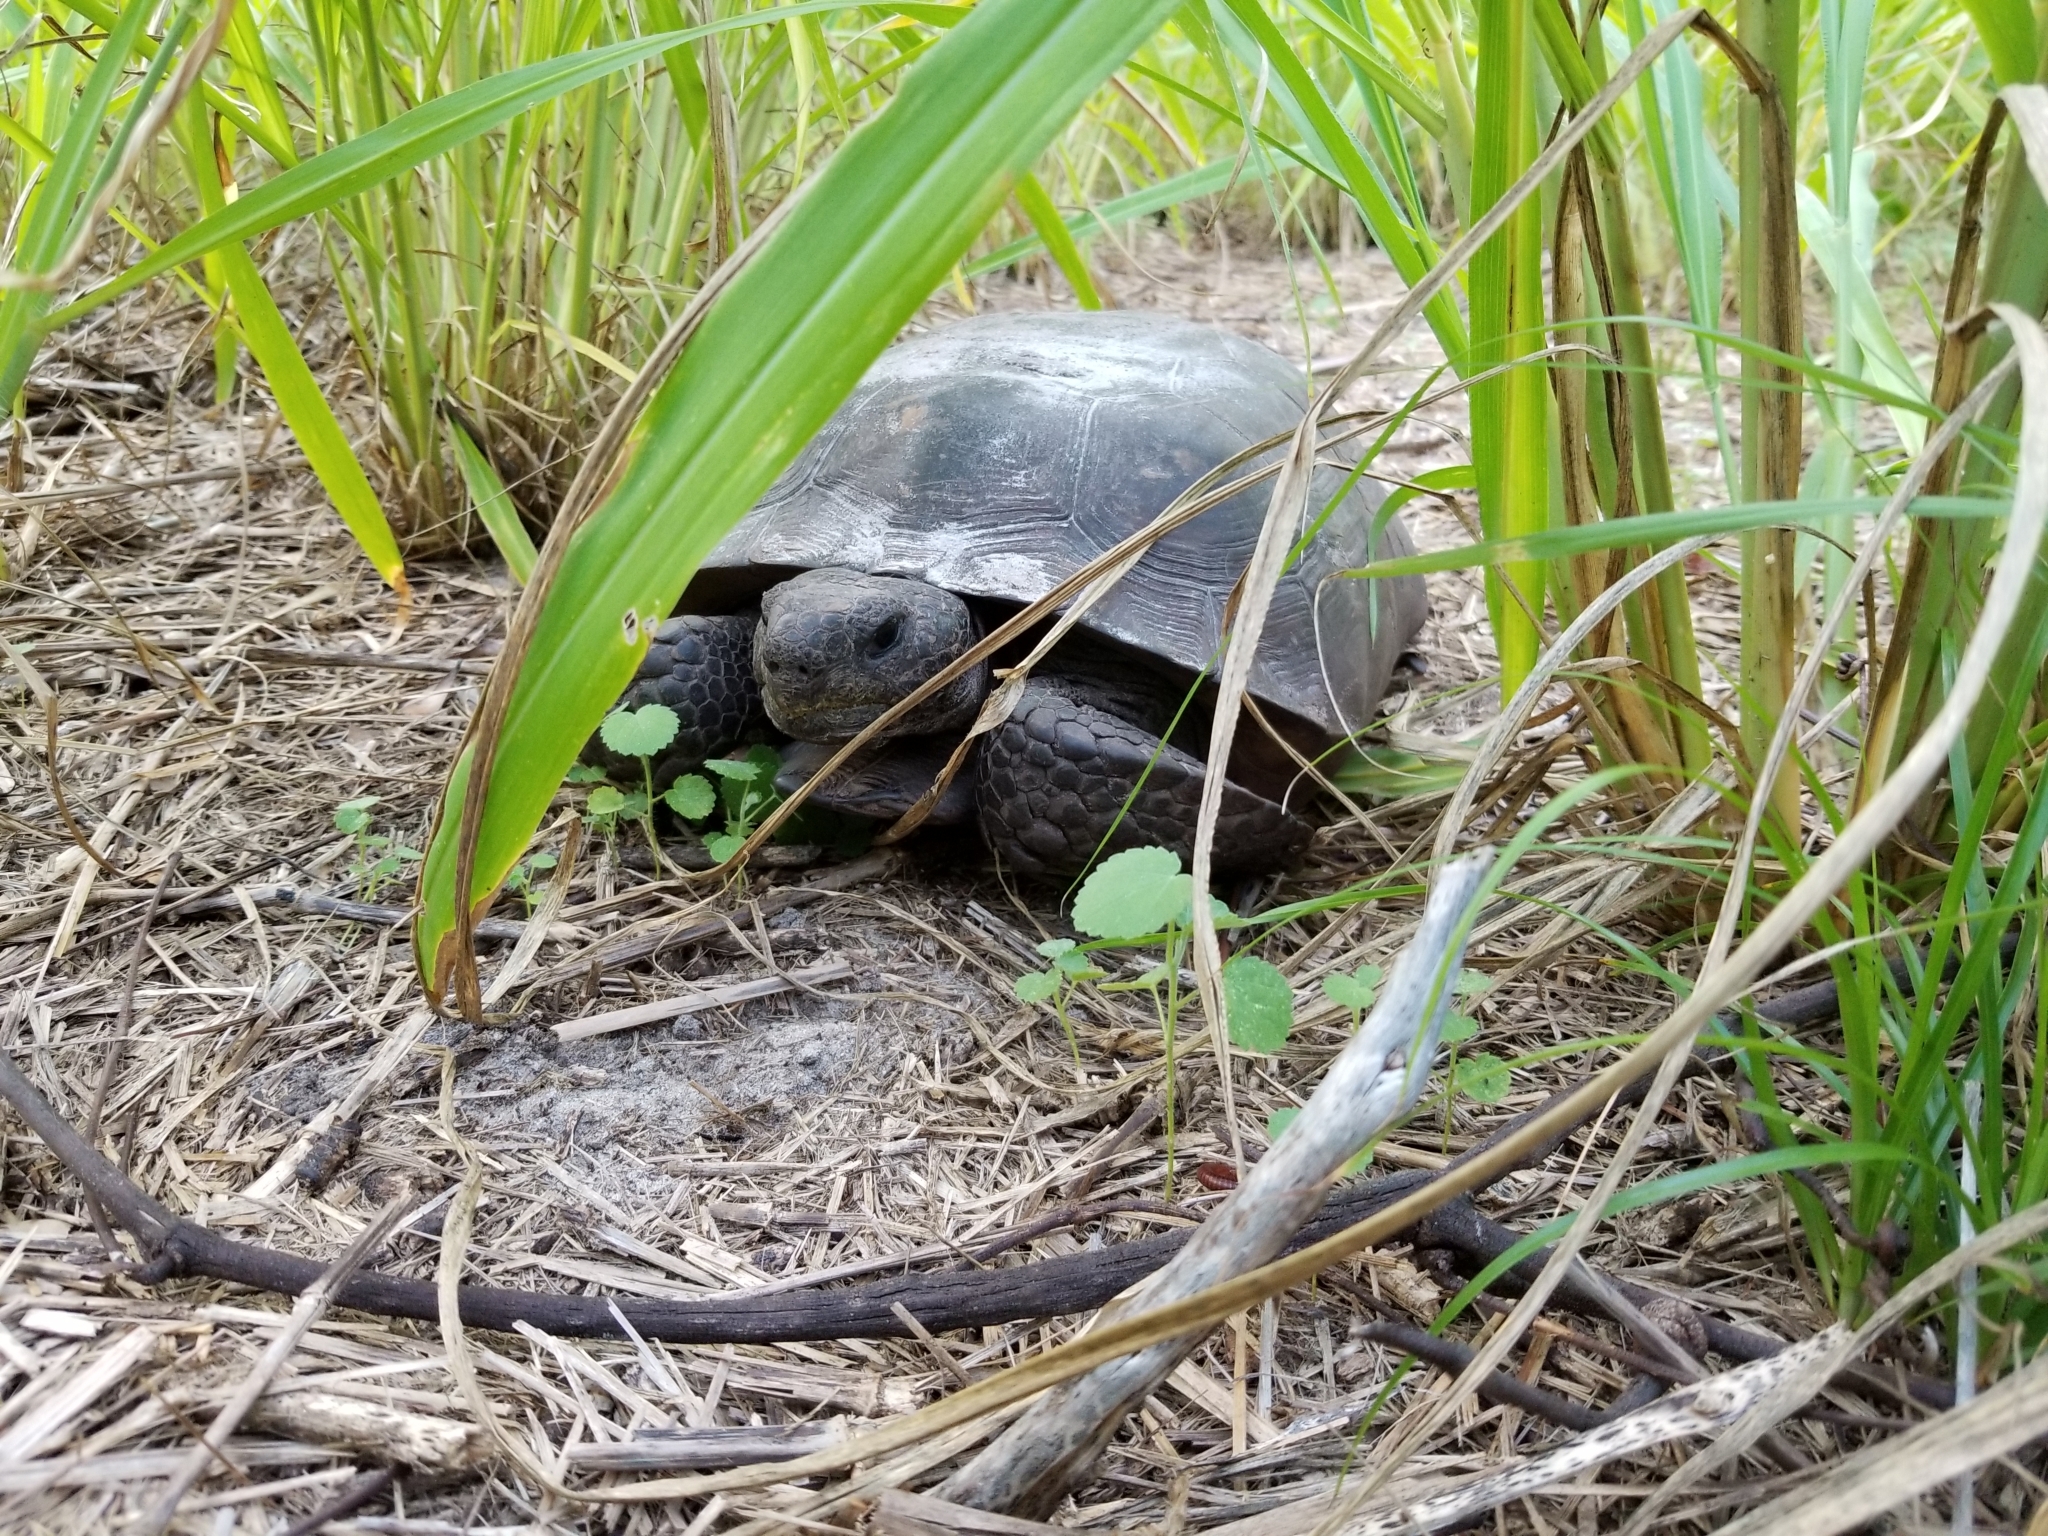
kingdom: Animalia
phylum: Chordata
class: Testudines
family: Testudinidae
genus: Gopherus
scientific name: Gopherus polyphemus
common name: Florida gopher tortoise
